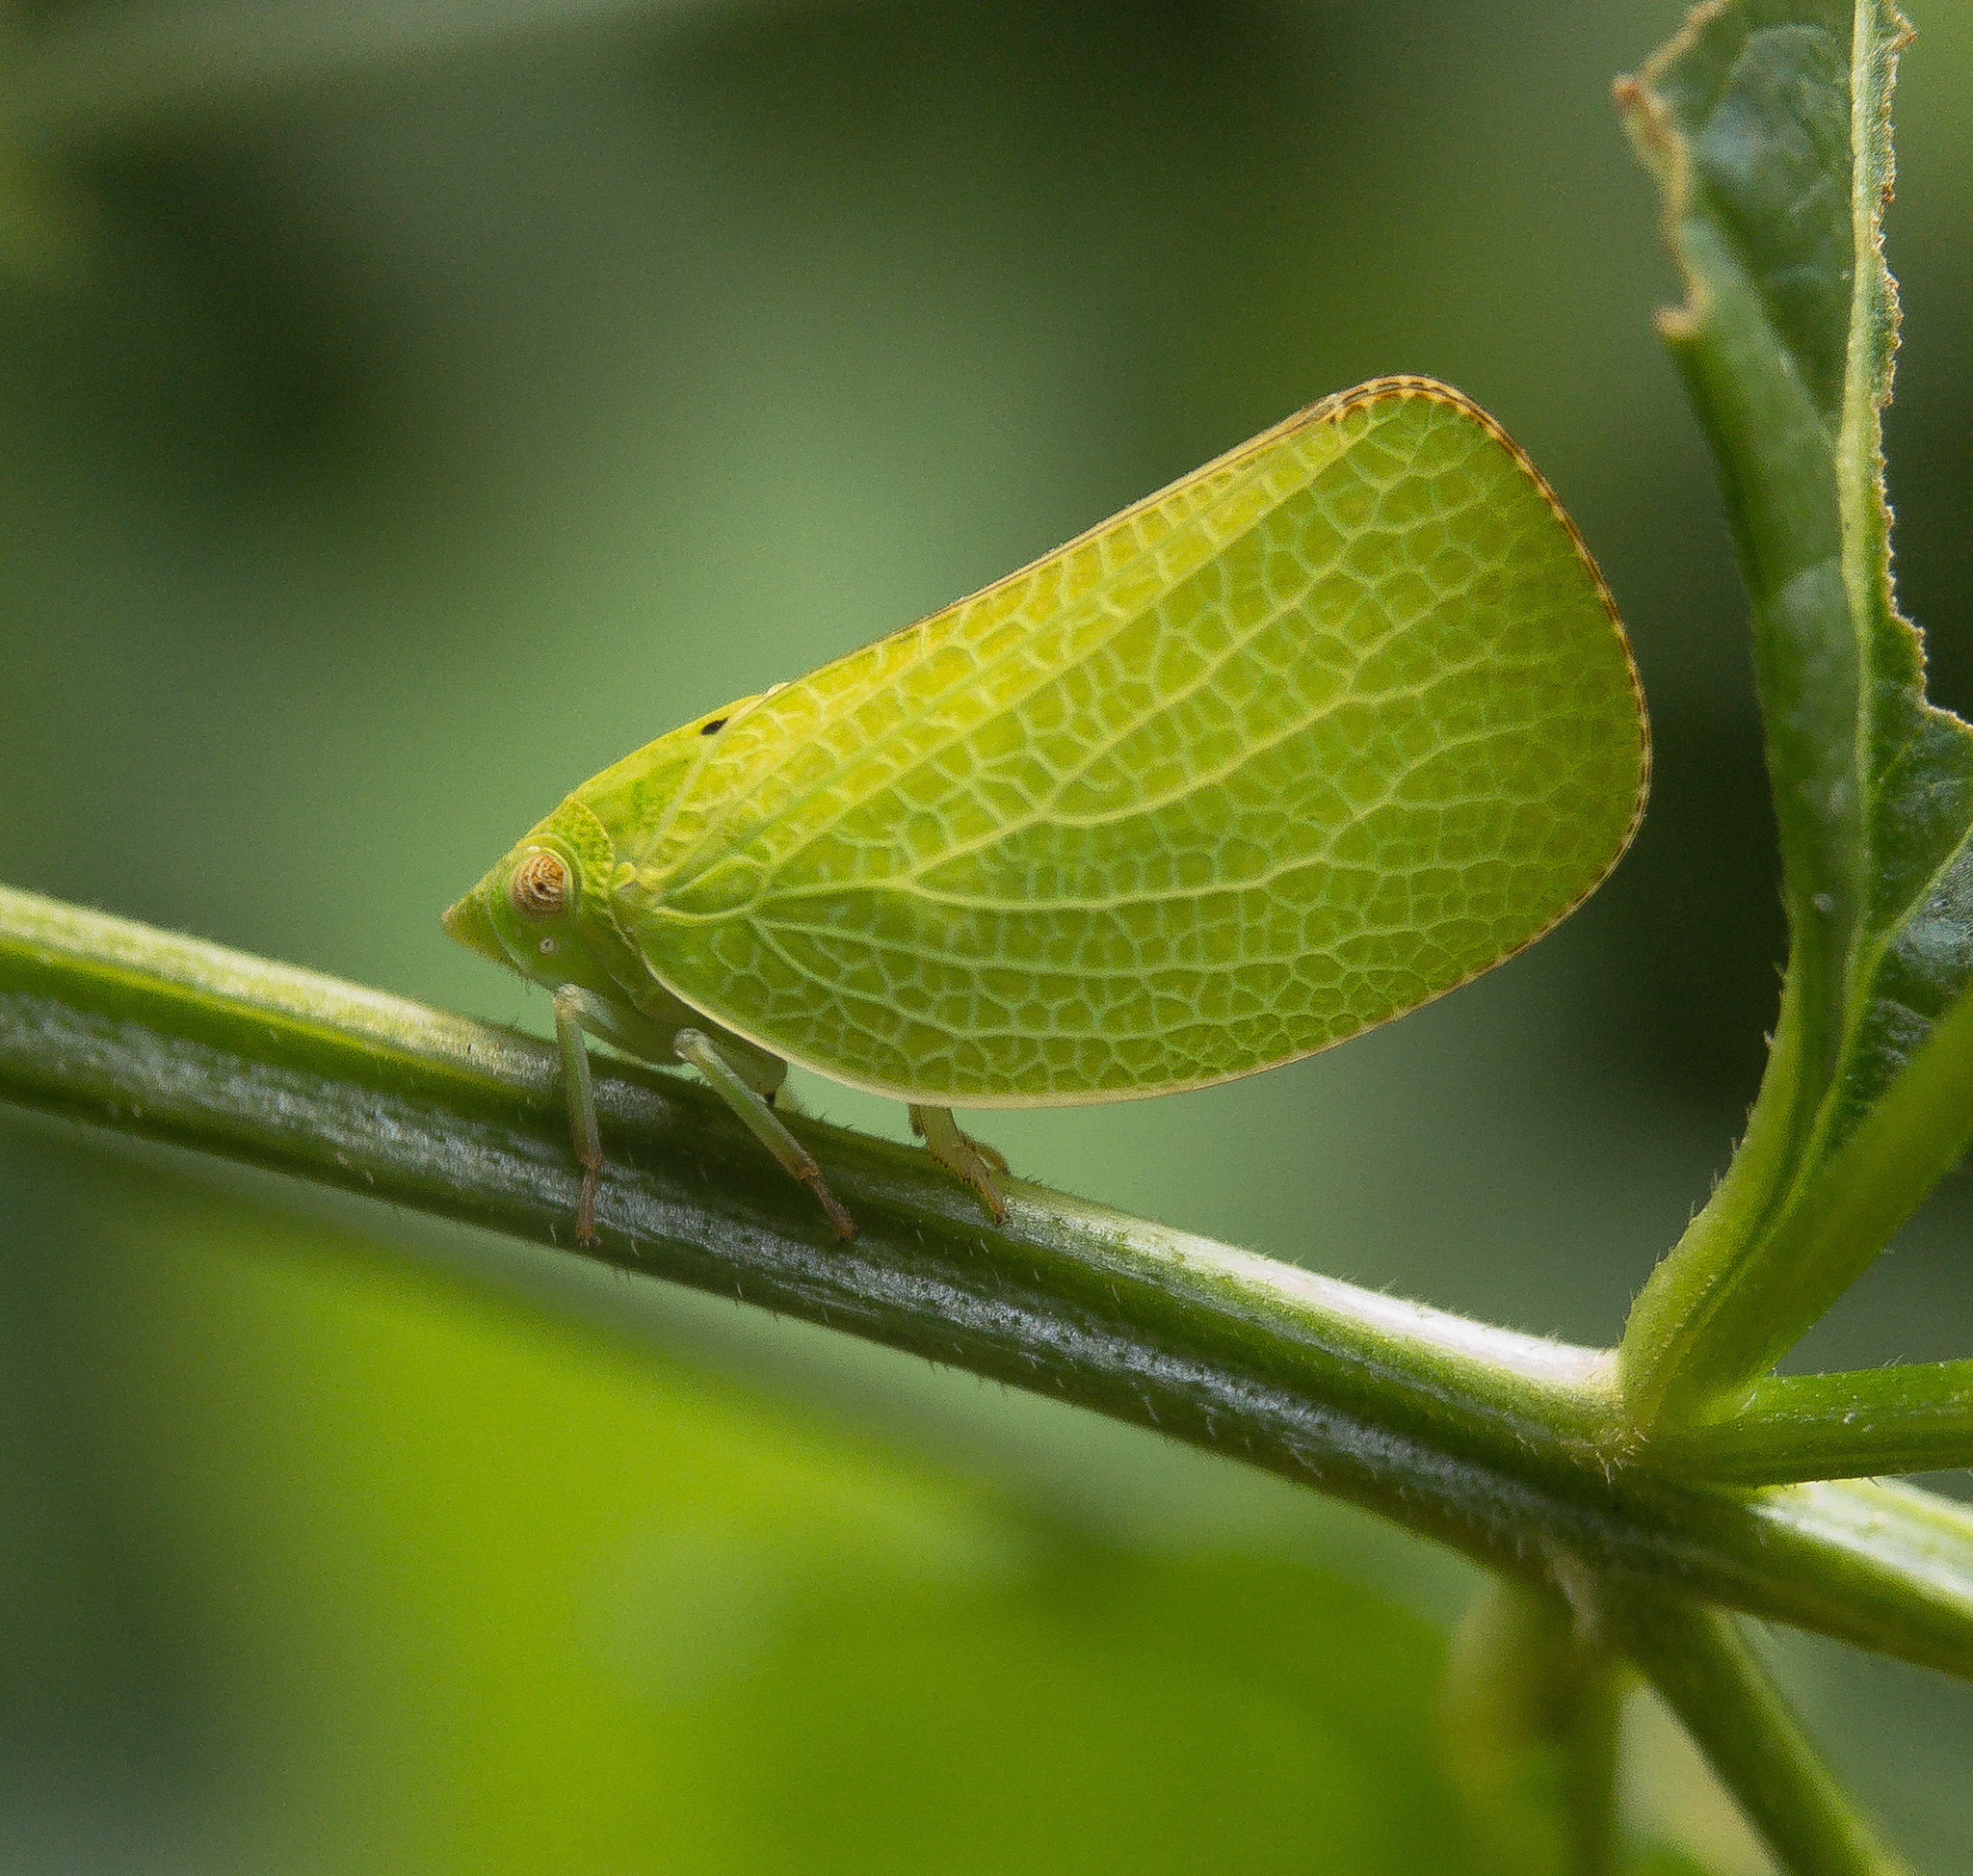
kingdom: Animalia
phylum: Arthropoda
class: Insecta
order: Hemiptera
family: Acanaloniidae
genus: Acanalonia
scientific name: Acanalonia conica
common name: Green cone-headed planthopper
